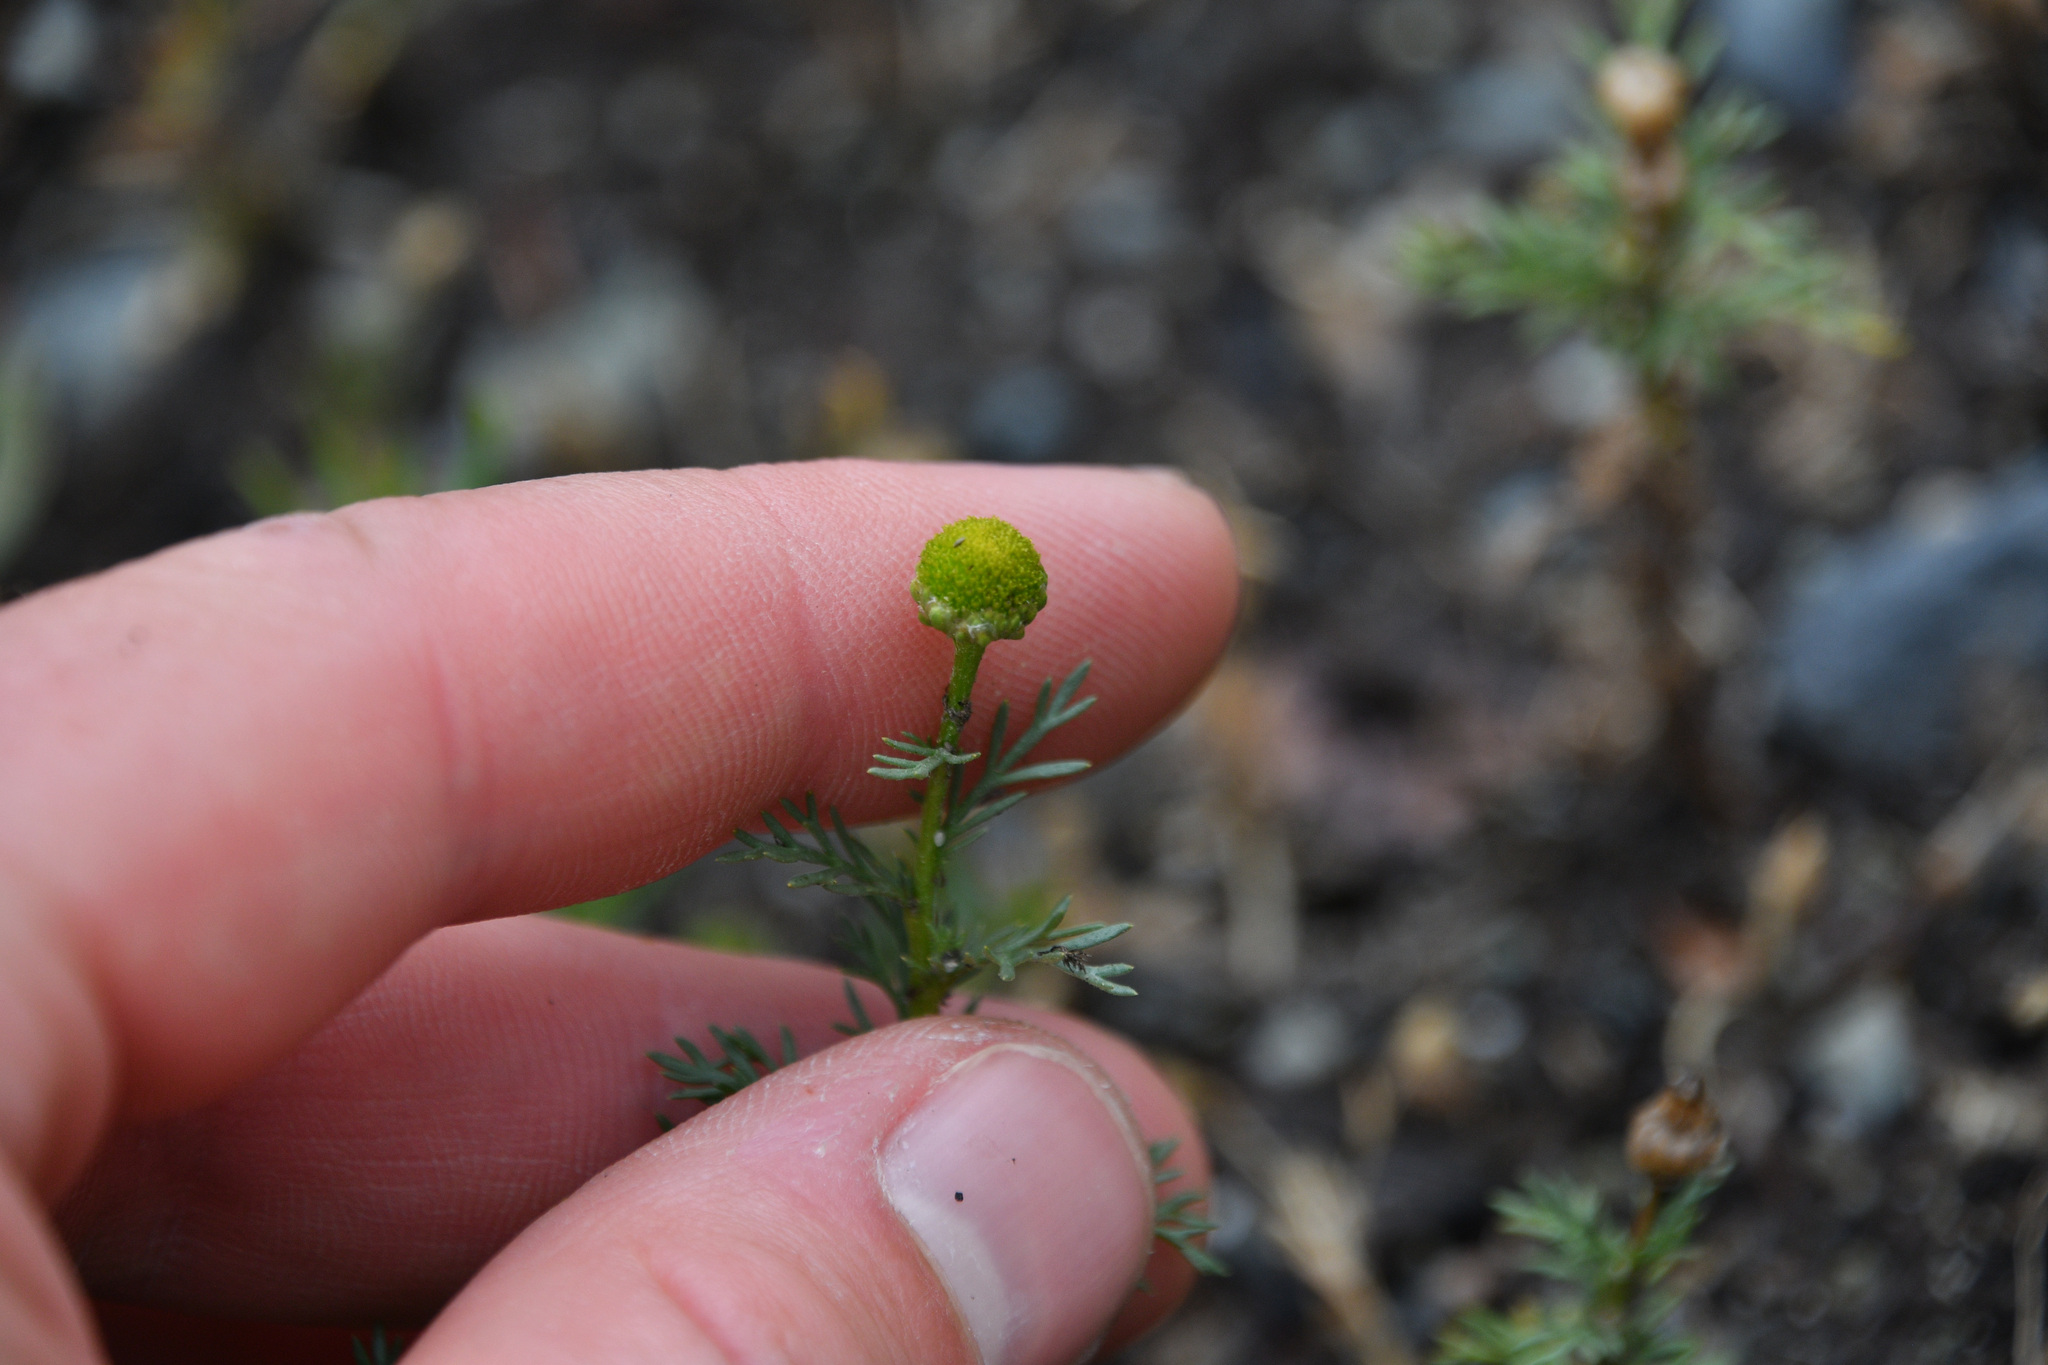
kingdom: Plantae
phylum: Tracheophyta
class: Magnoliopsida
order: Asterales
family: Asteraceae
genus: Matricaria
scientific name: Matricaria discoidea
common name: Disc mayweed
